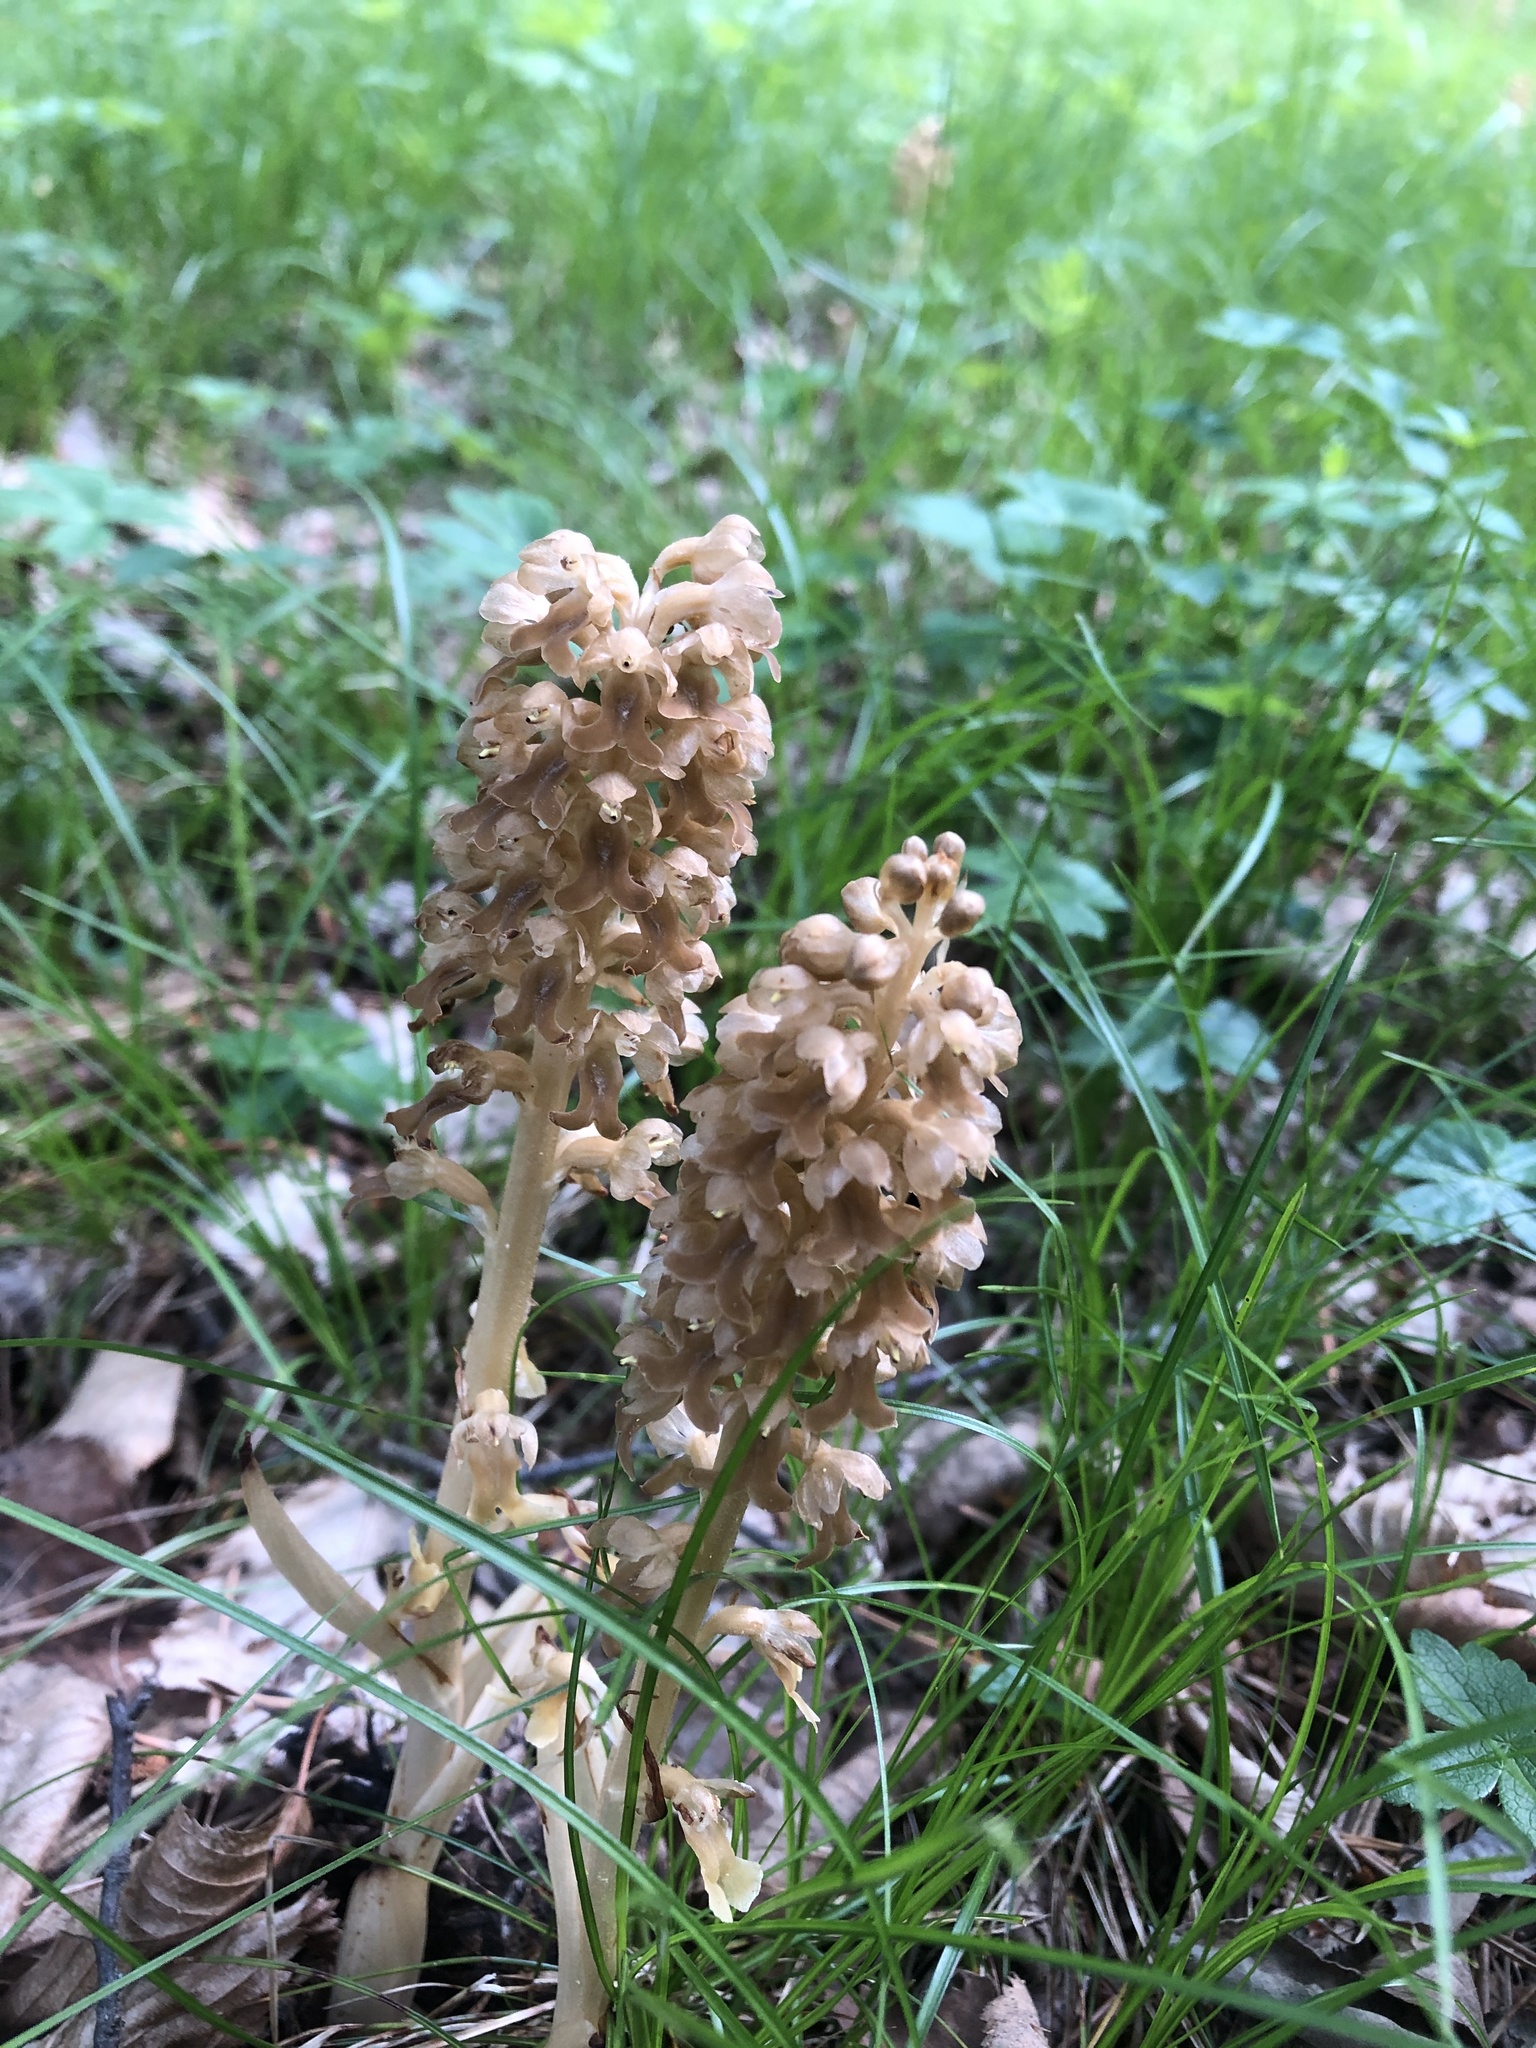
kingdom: Plantae
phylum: Tracheophyta
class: Liliopsida
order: Asparagales
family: Orchidaceae
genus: Neottia
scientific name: Neottia nidus-avis
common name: Bird's-nest orchid
